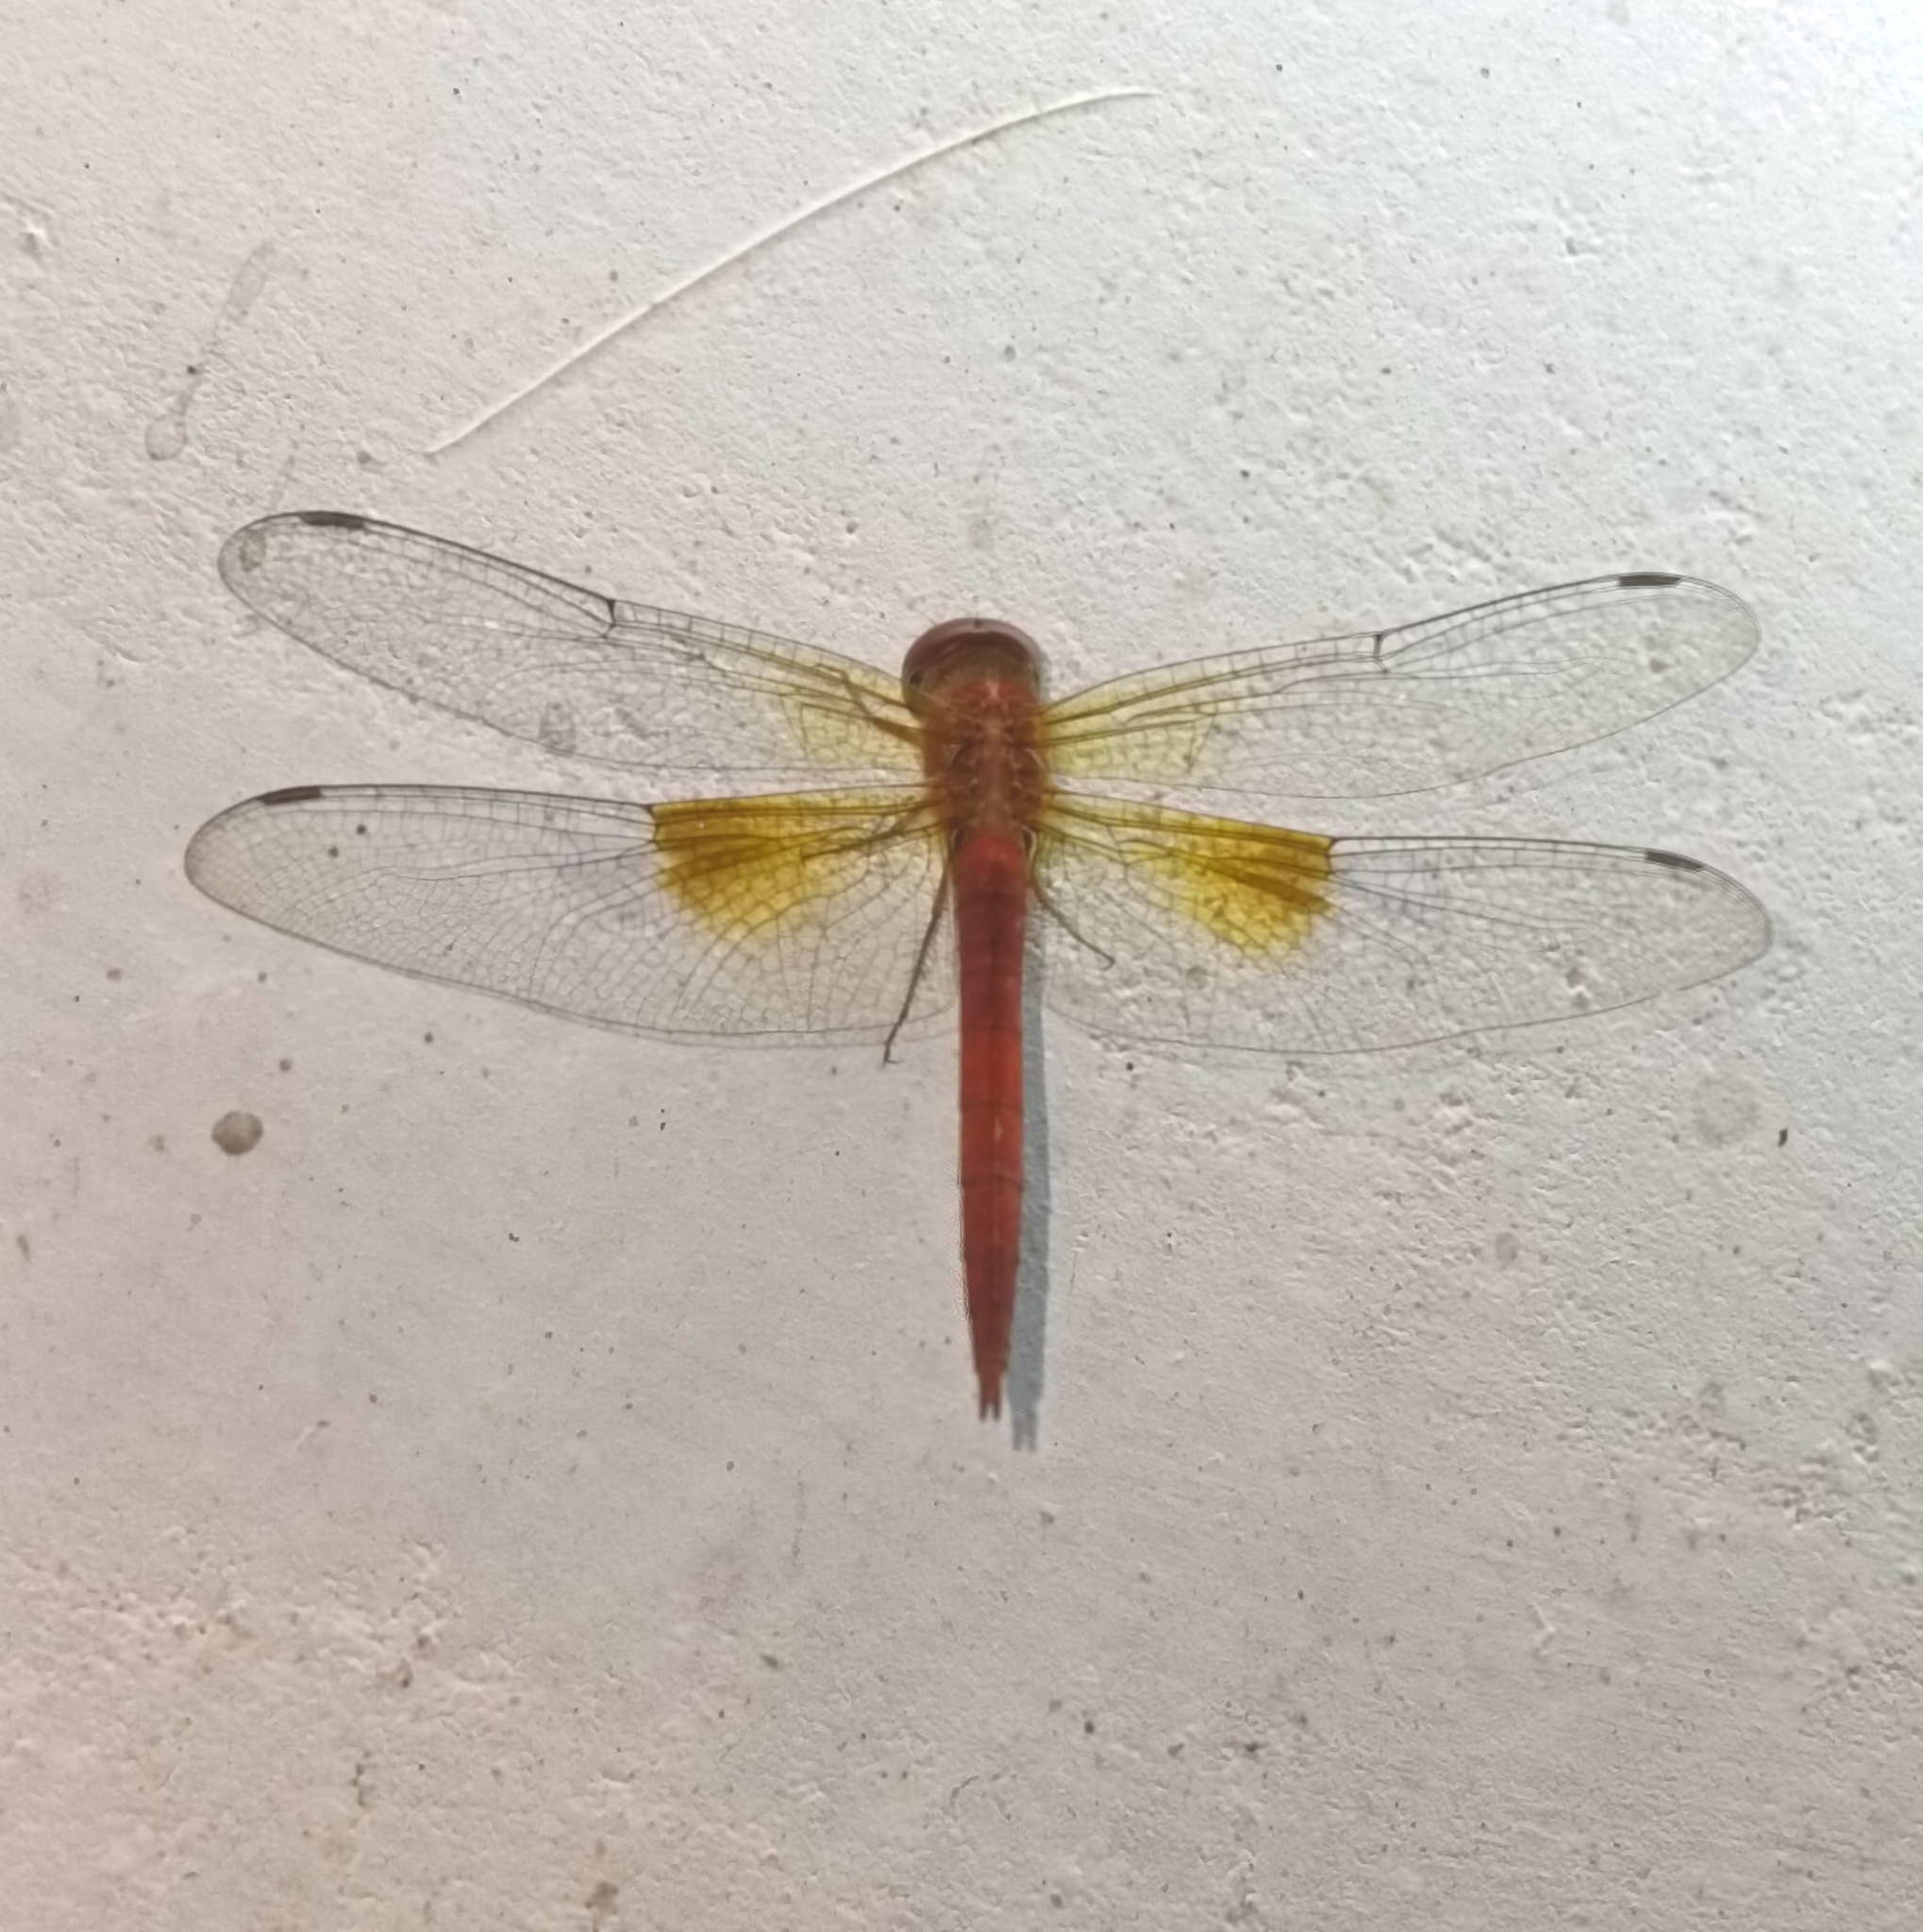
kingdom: Animalia
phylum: Arthropoda
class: Insecta
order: Odonata
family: Libellulidae
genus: Tholymis
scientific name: Tholymis tillarga
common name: Coral-tailed cloud wing
